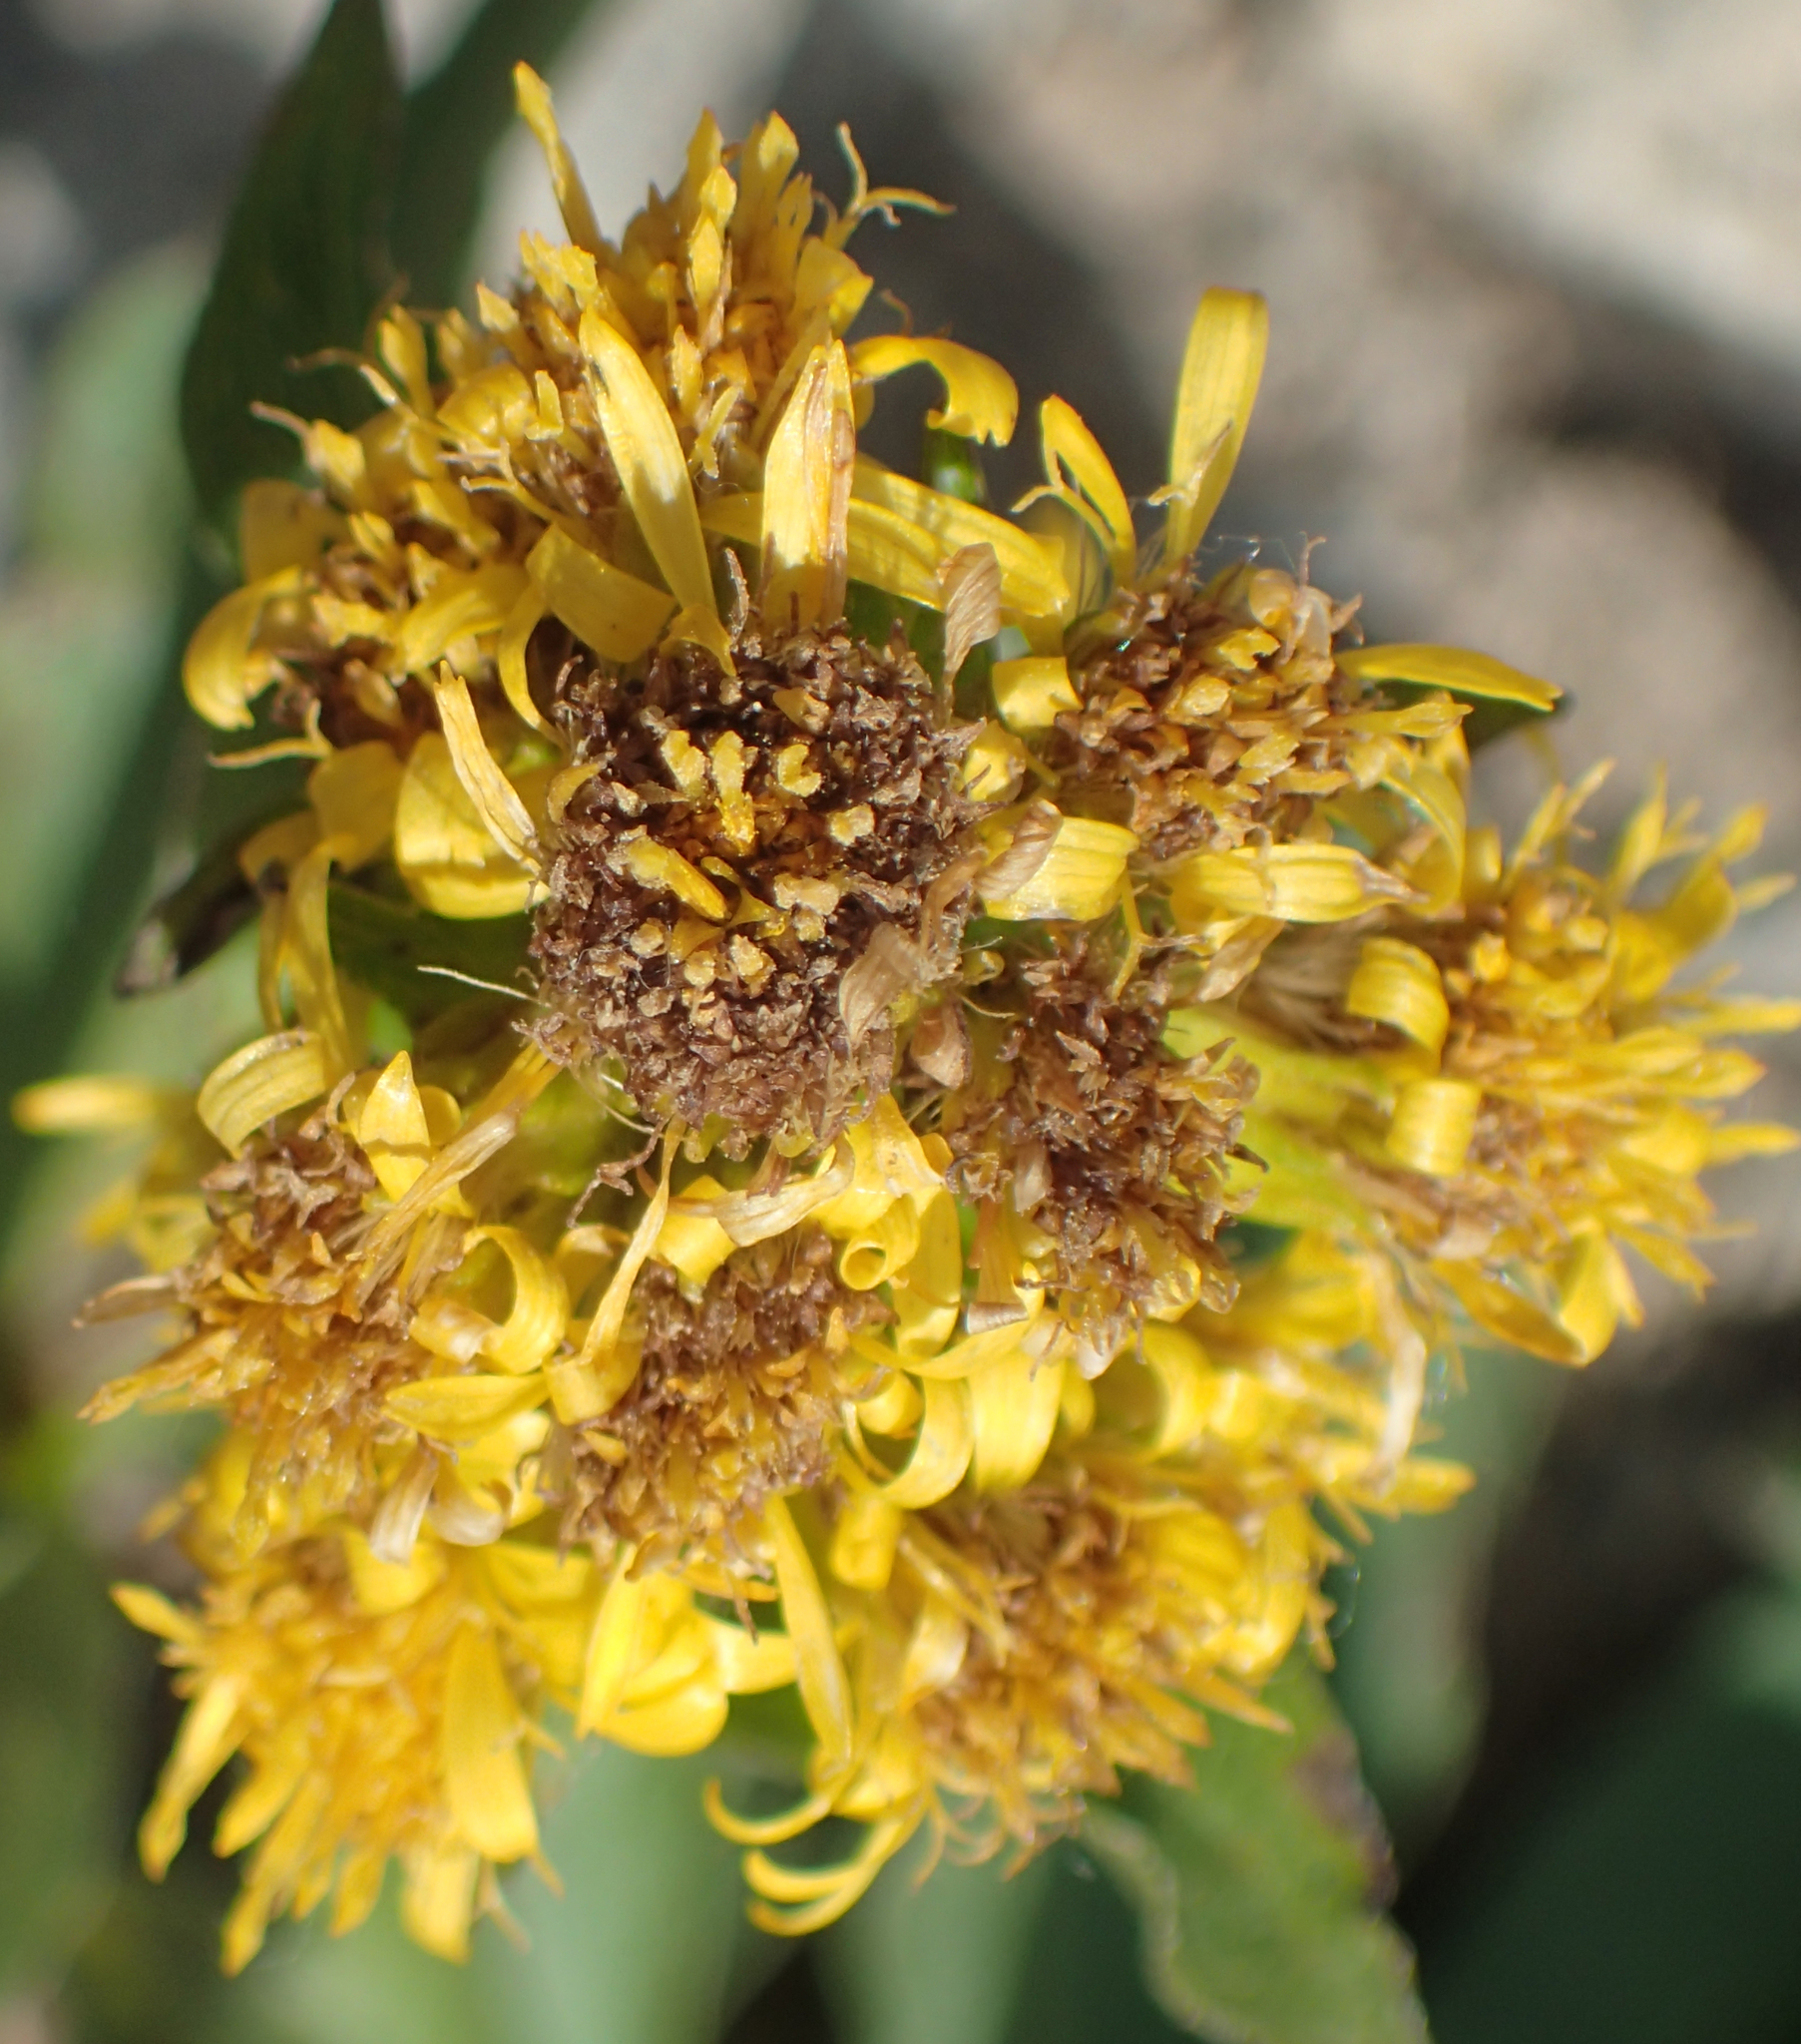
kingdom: Plantae
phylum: Tracheophyta
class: Magnoliopsida
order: Asterales
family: Asteraceae
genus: Solidago
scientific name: Solidago multiradiata
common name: Northern goldenrod
